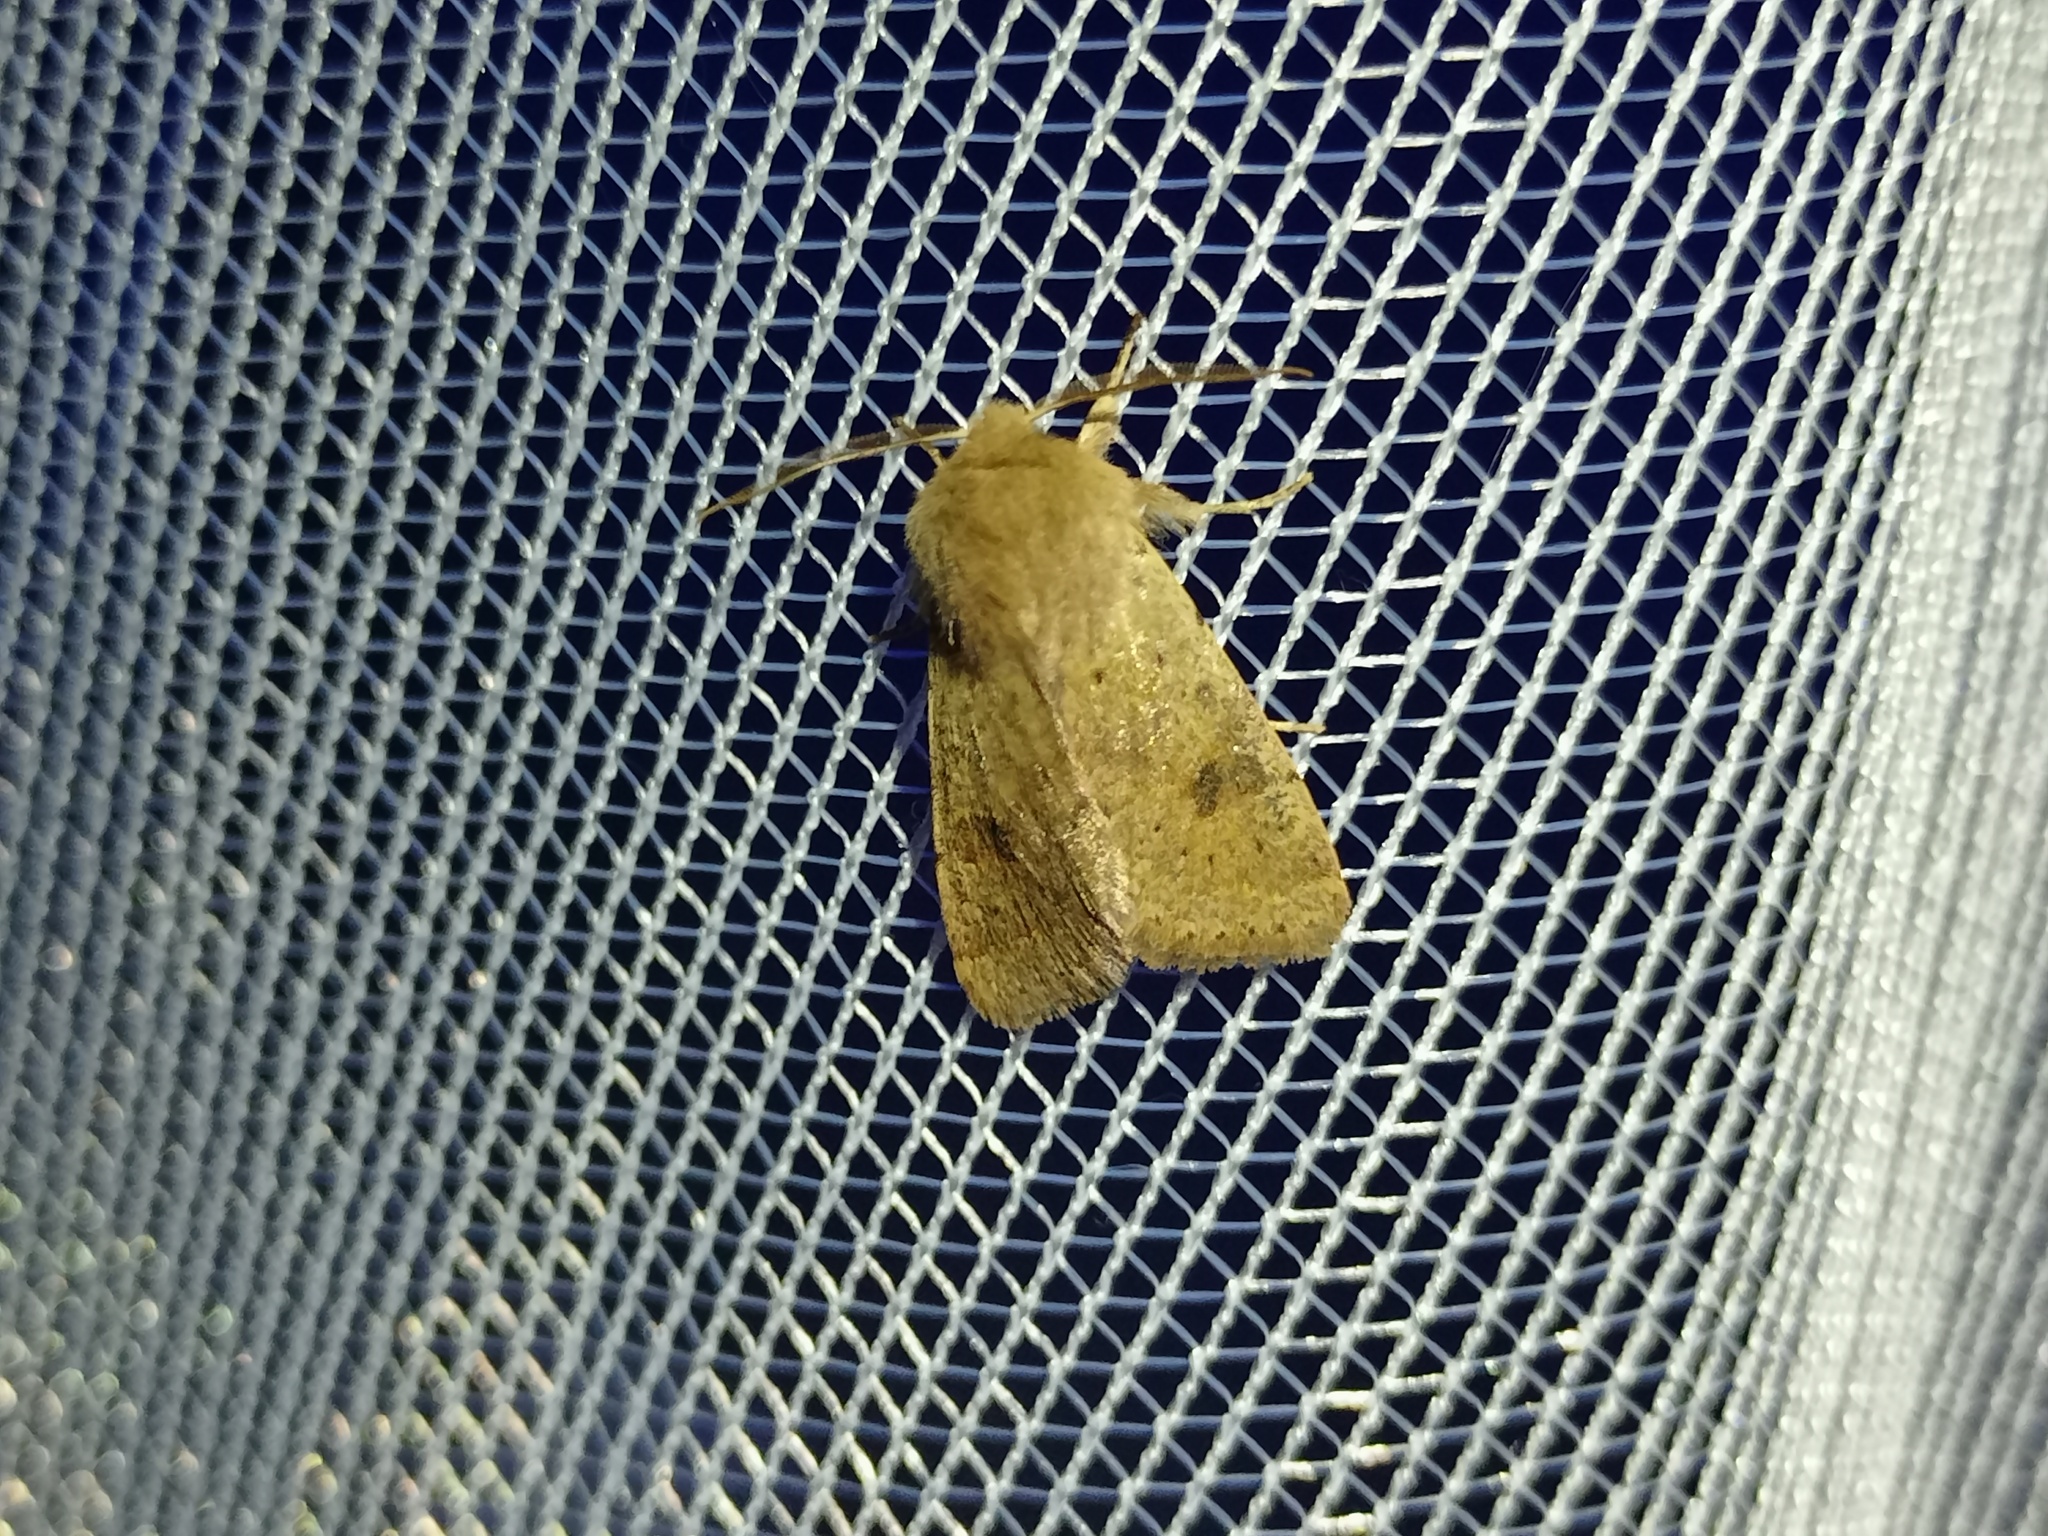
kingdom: Animalia
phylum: Arthropoda
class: Insecta
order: Lepidoptera
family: Noctuidae
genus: Orthosia
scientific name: Orthosia cruda
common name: Small quaker
